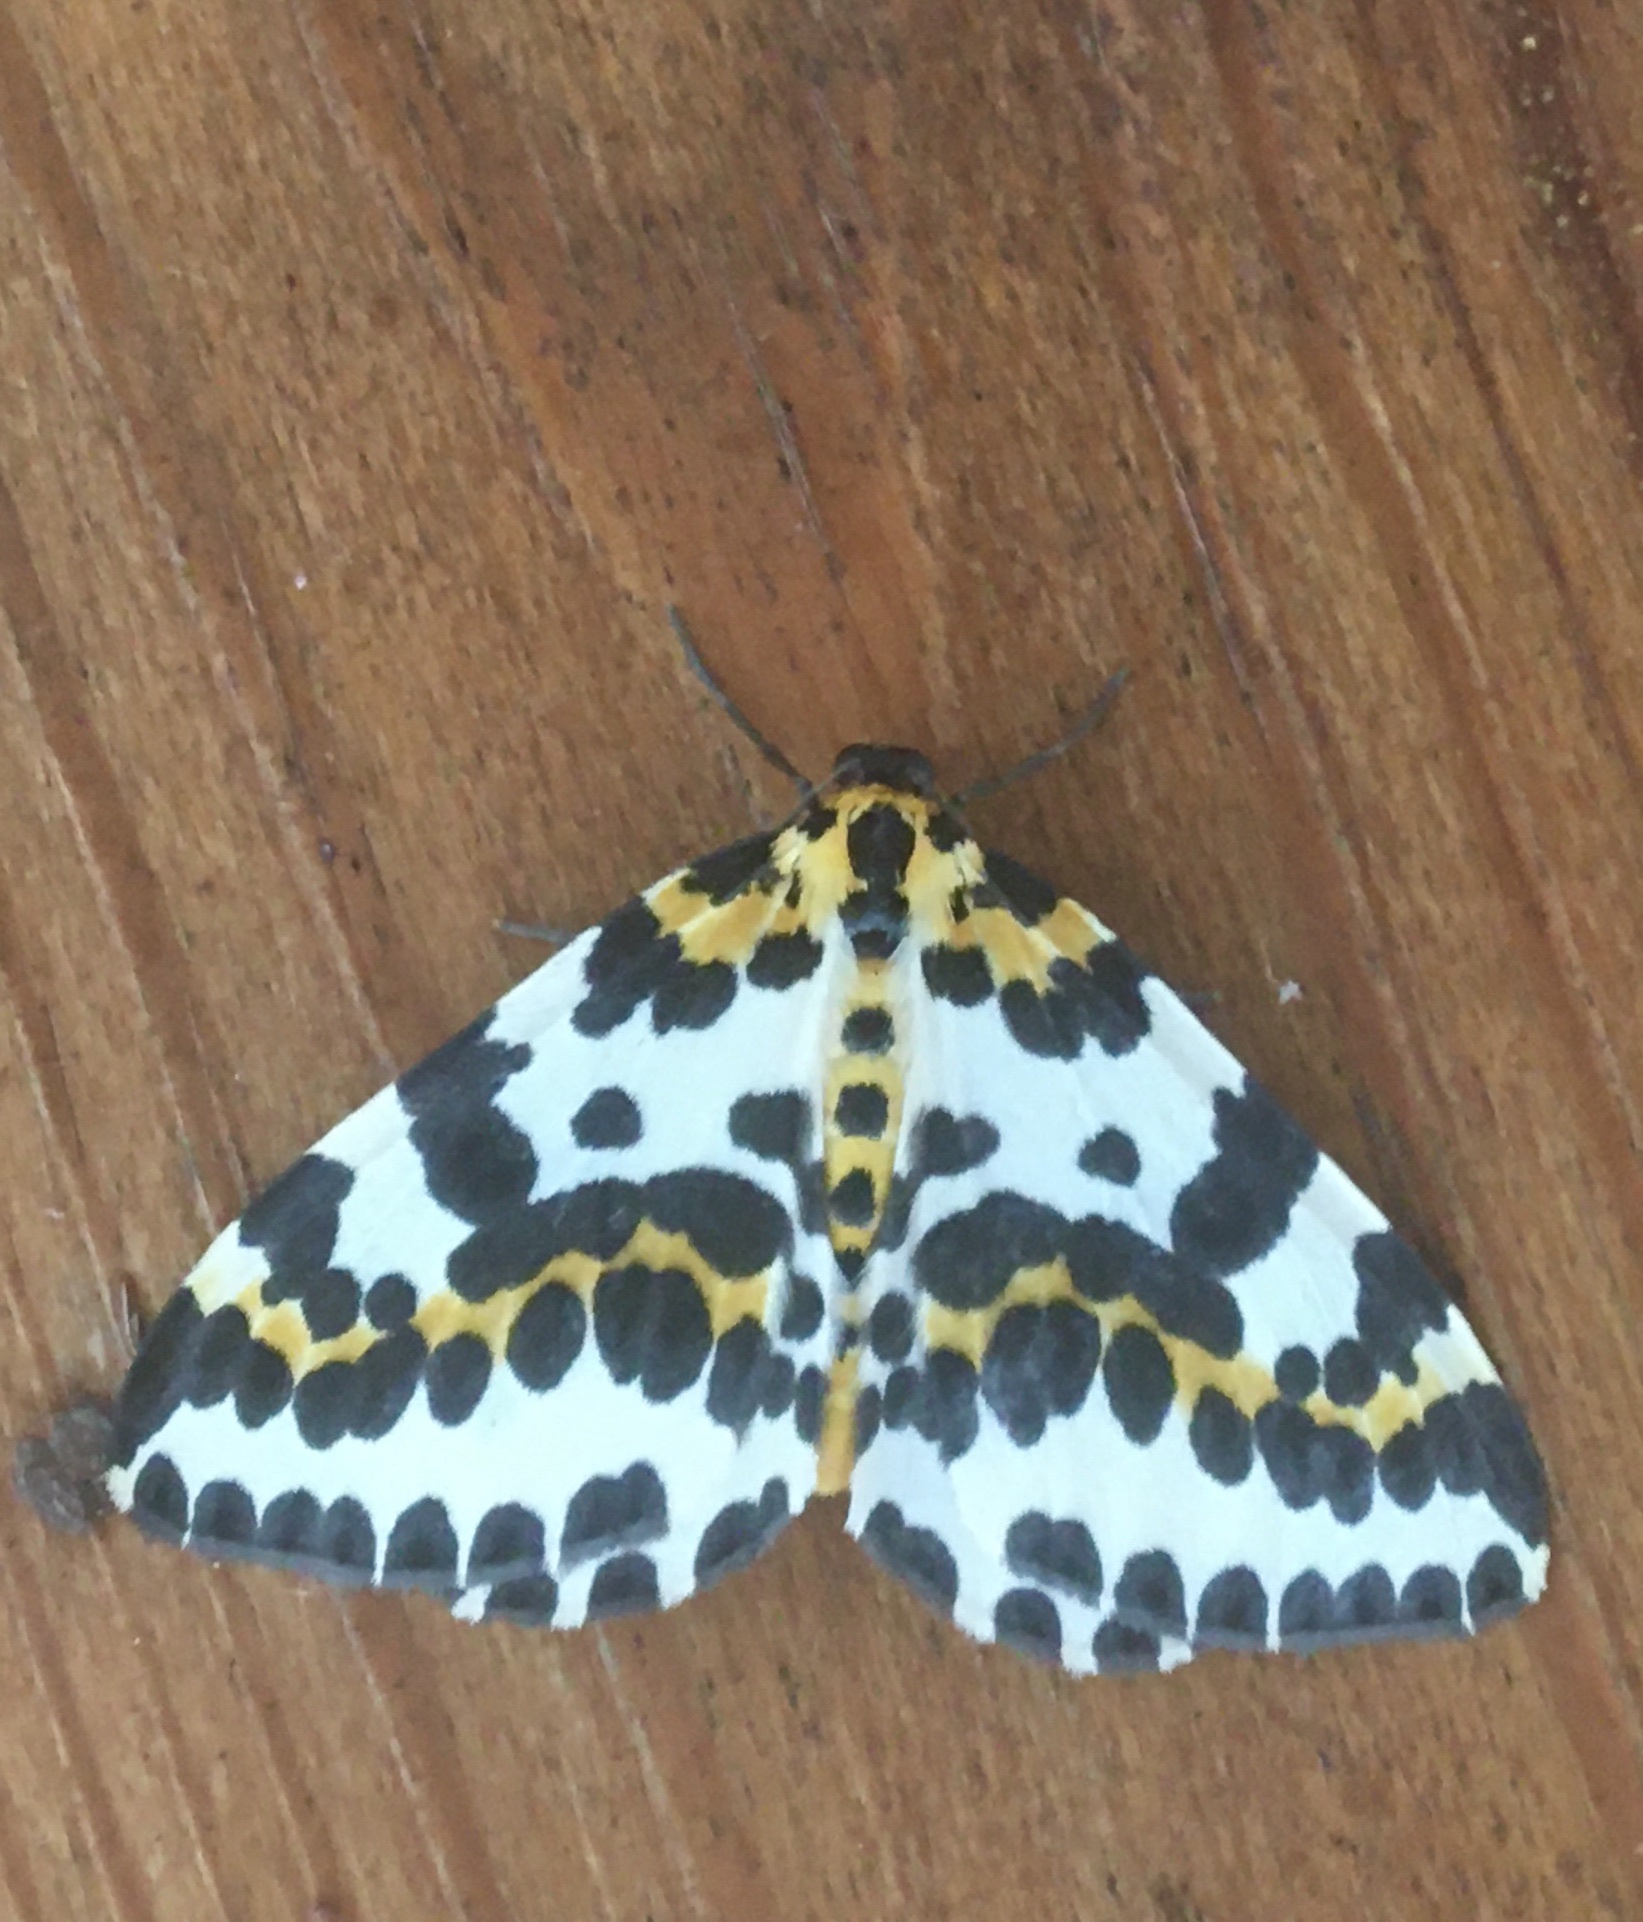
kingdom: Animalia
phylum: Arthropoda
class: Insecta
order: Lepidoptera
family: Geometridae
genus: Abraxas
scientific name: Abraxas grossulariata
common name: Magpie
